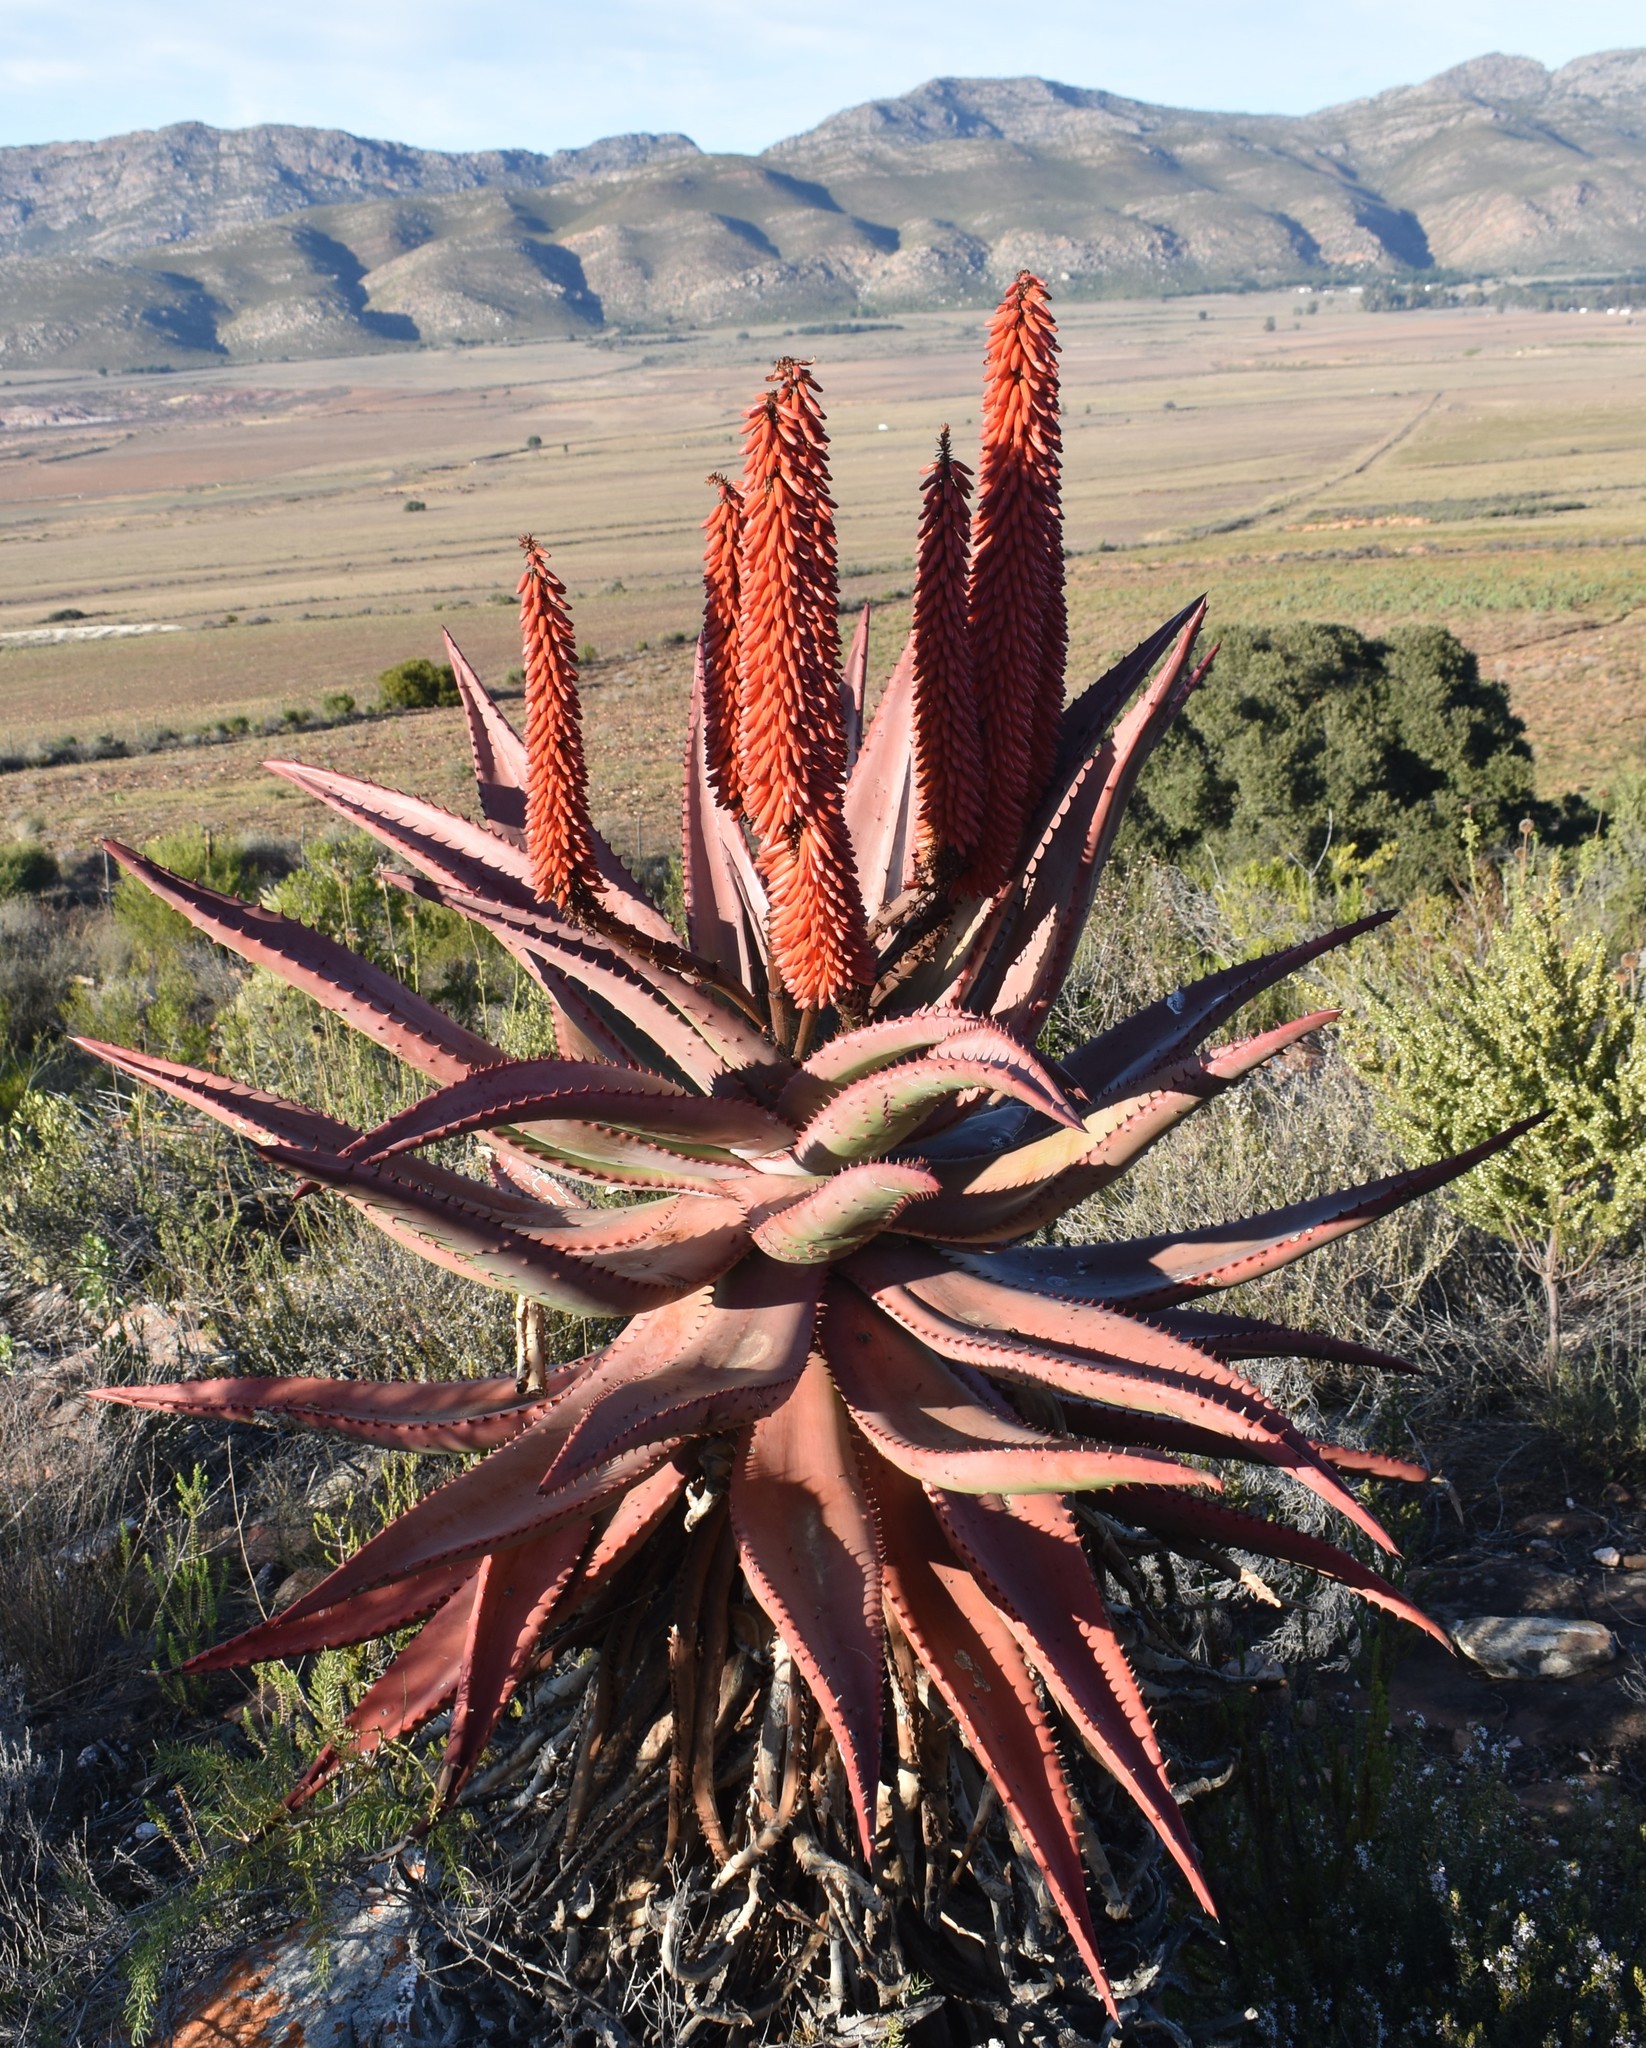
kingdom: Plantae
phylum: Tracheophyta
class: Liliopsida
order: Asparagales
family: Asphodelaceae
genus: Aloe
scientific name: Aloe ferox
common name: Bitter aloe
